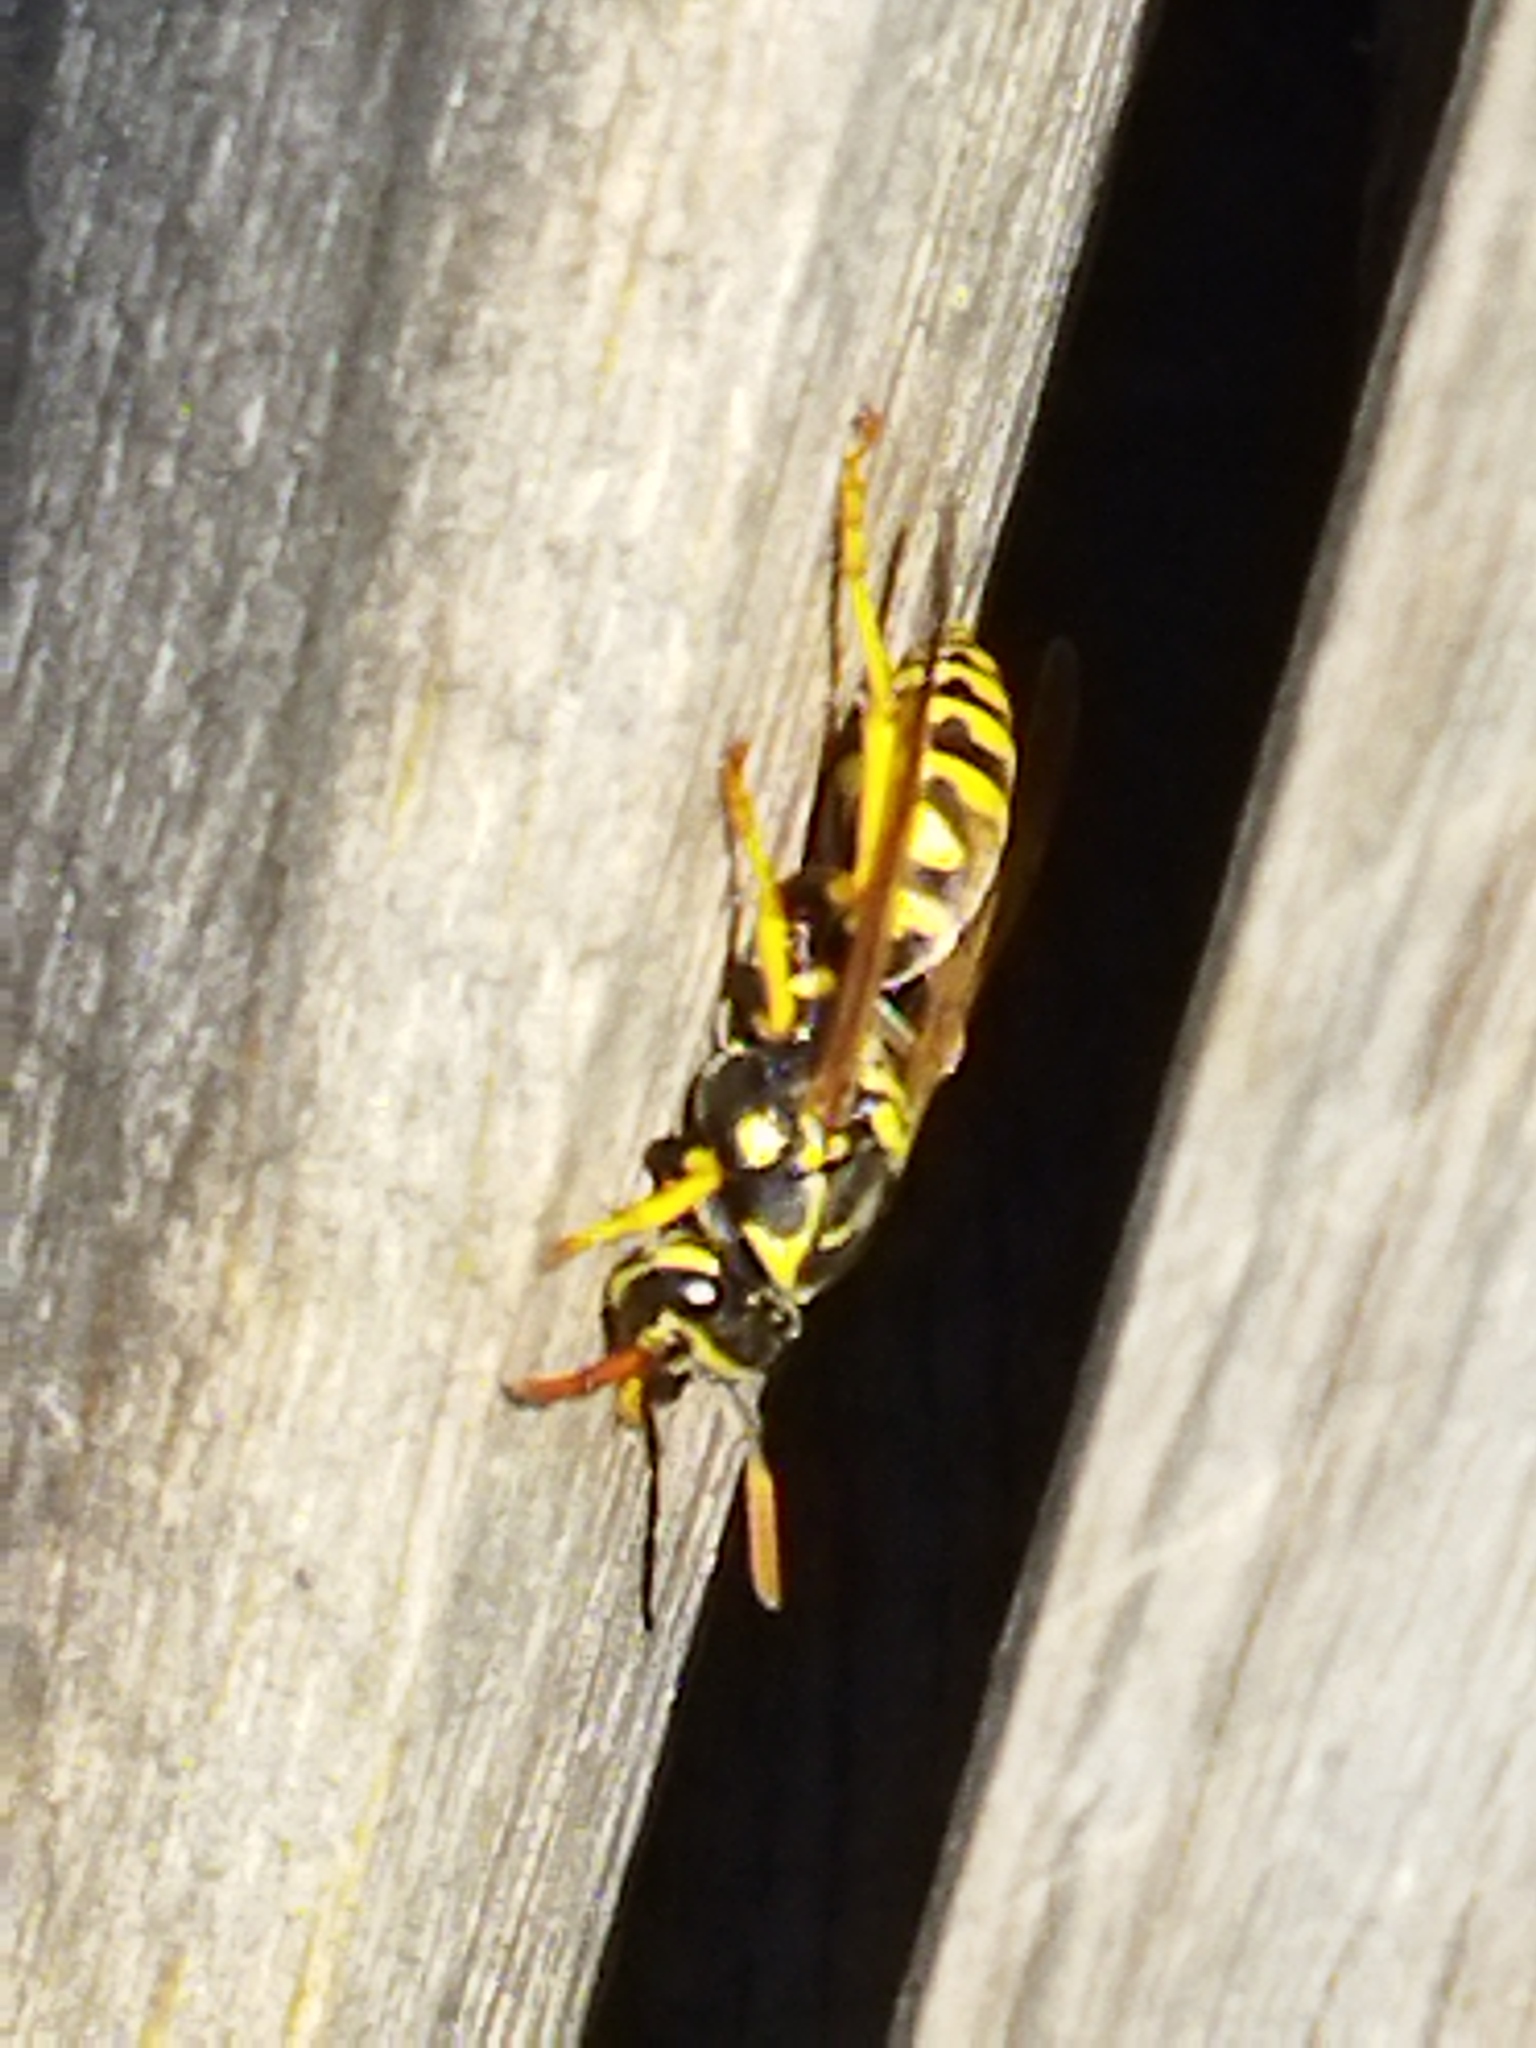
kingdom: Animalia
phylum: Arthropoda
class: Insecta
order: Hymenoptera
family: Eumenidae
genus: Polistes
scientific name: Polistes dominula
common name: Paper wasp
